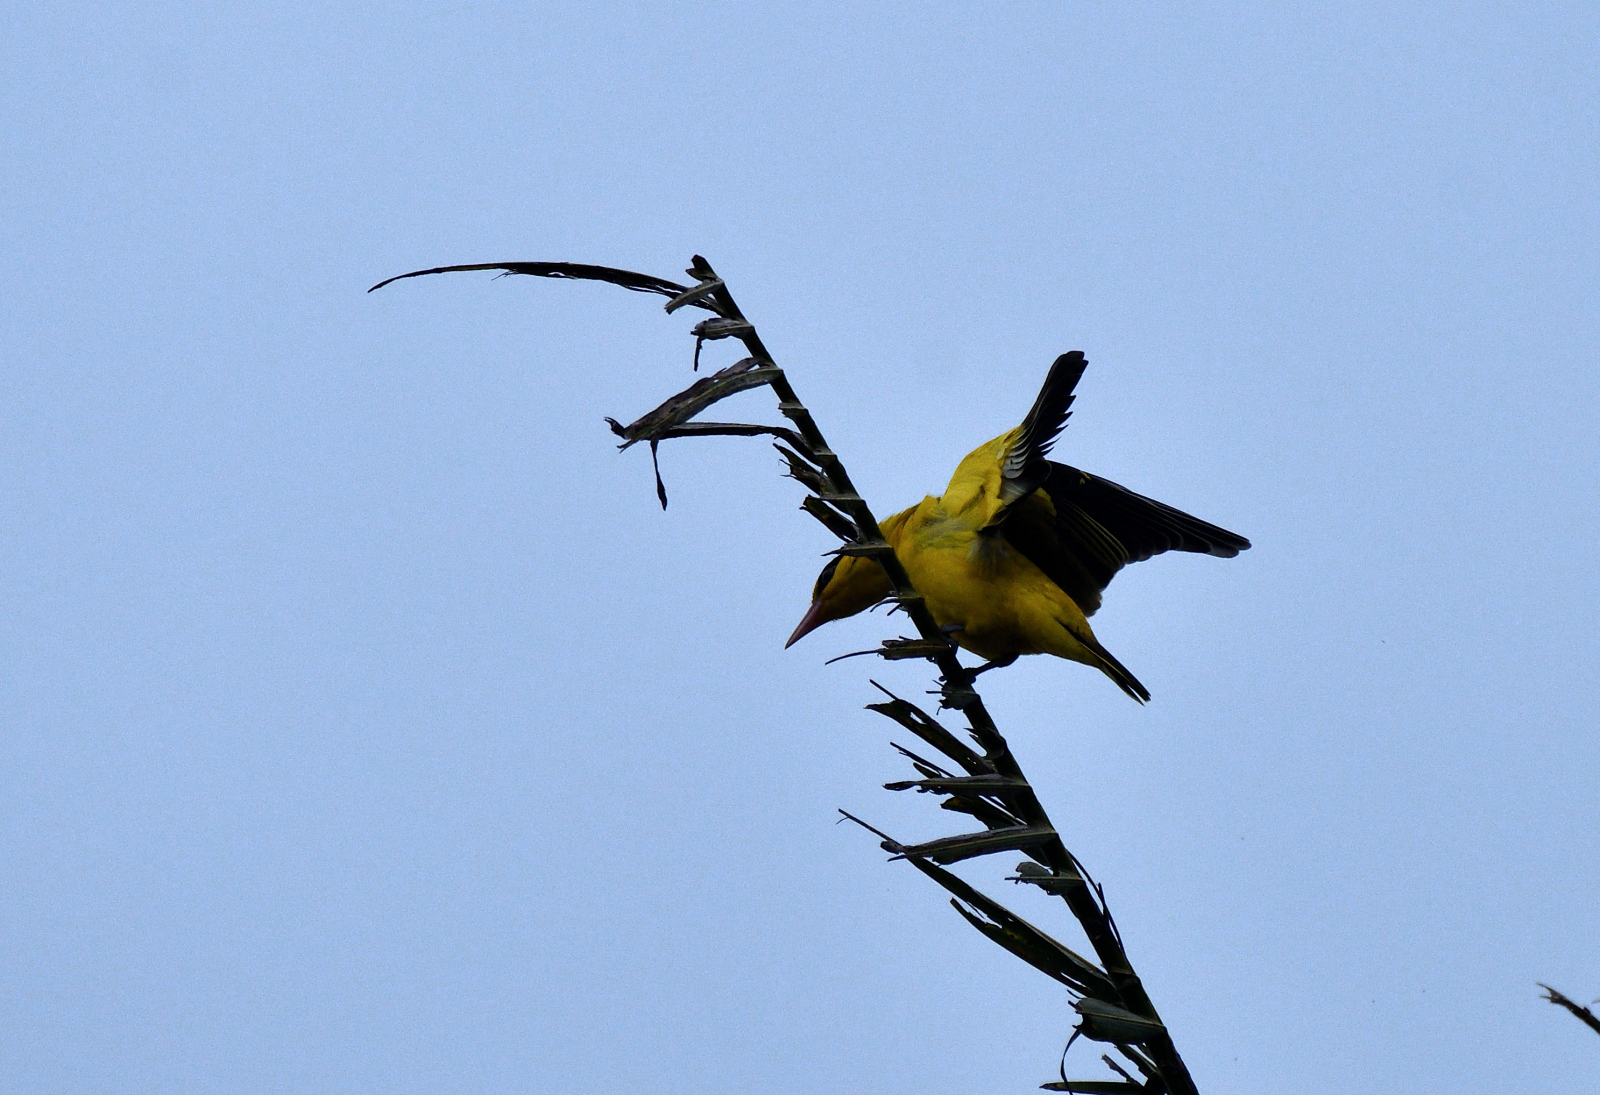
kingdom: Animalia
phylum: Chordata
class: Aves
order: Passeriformes
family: Oriolidae
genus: Oriolus
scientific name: Oriolus kundoo
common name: Indian golden oriole
